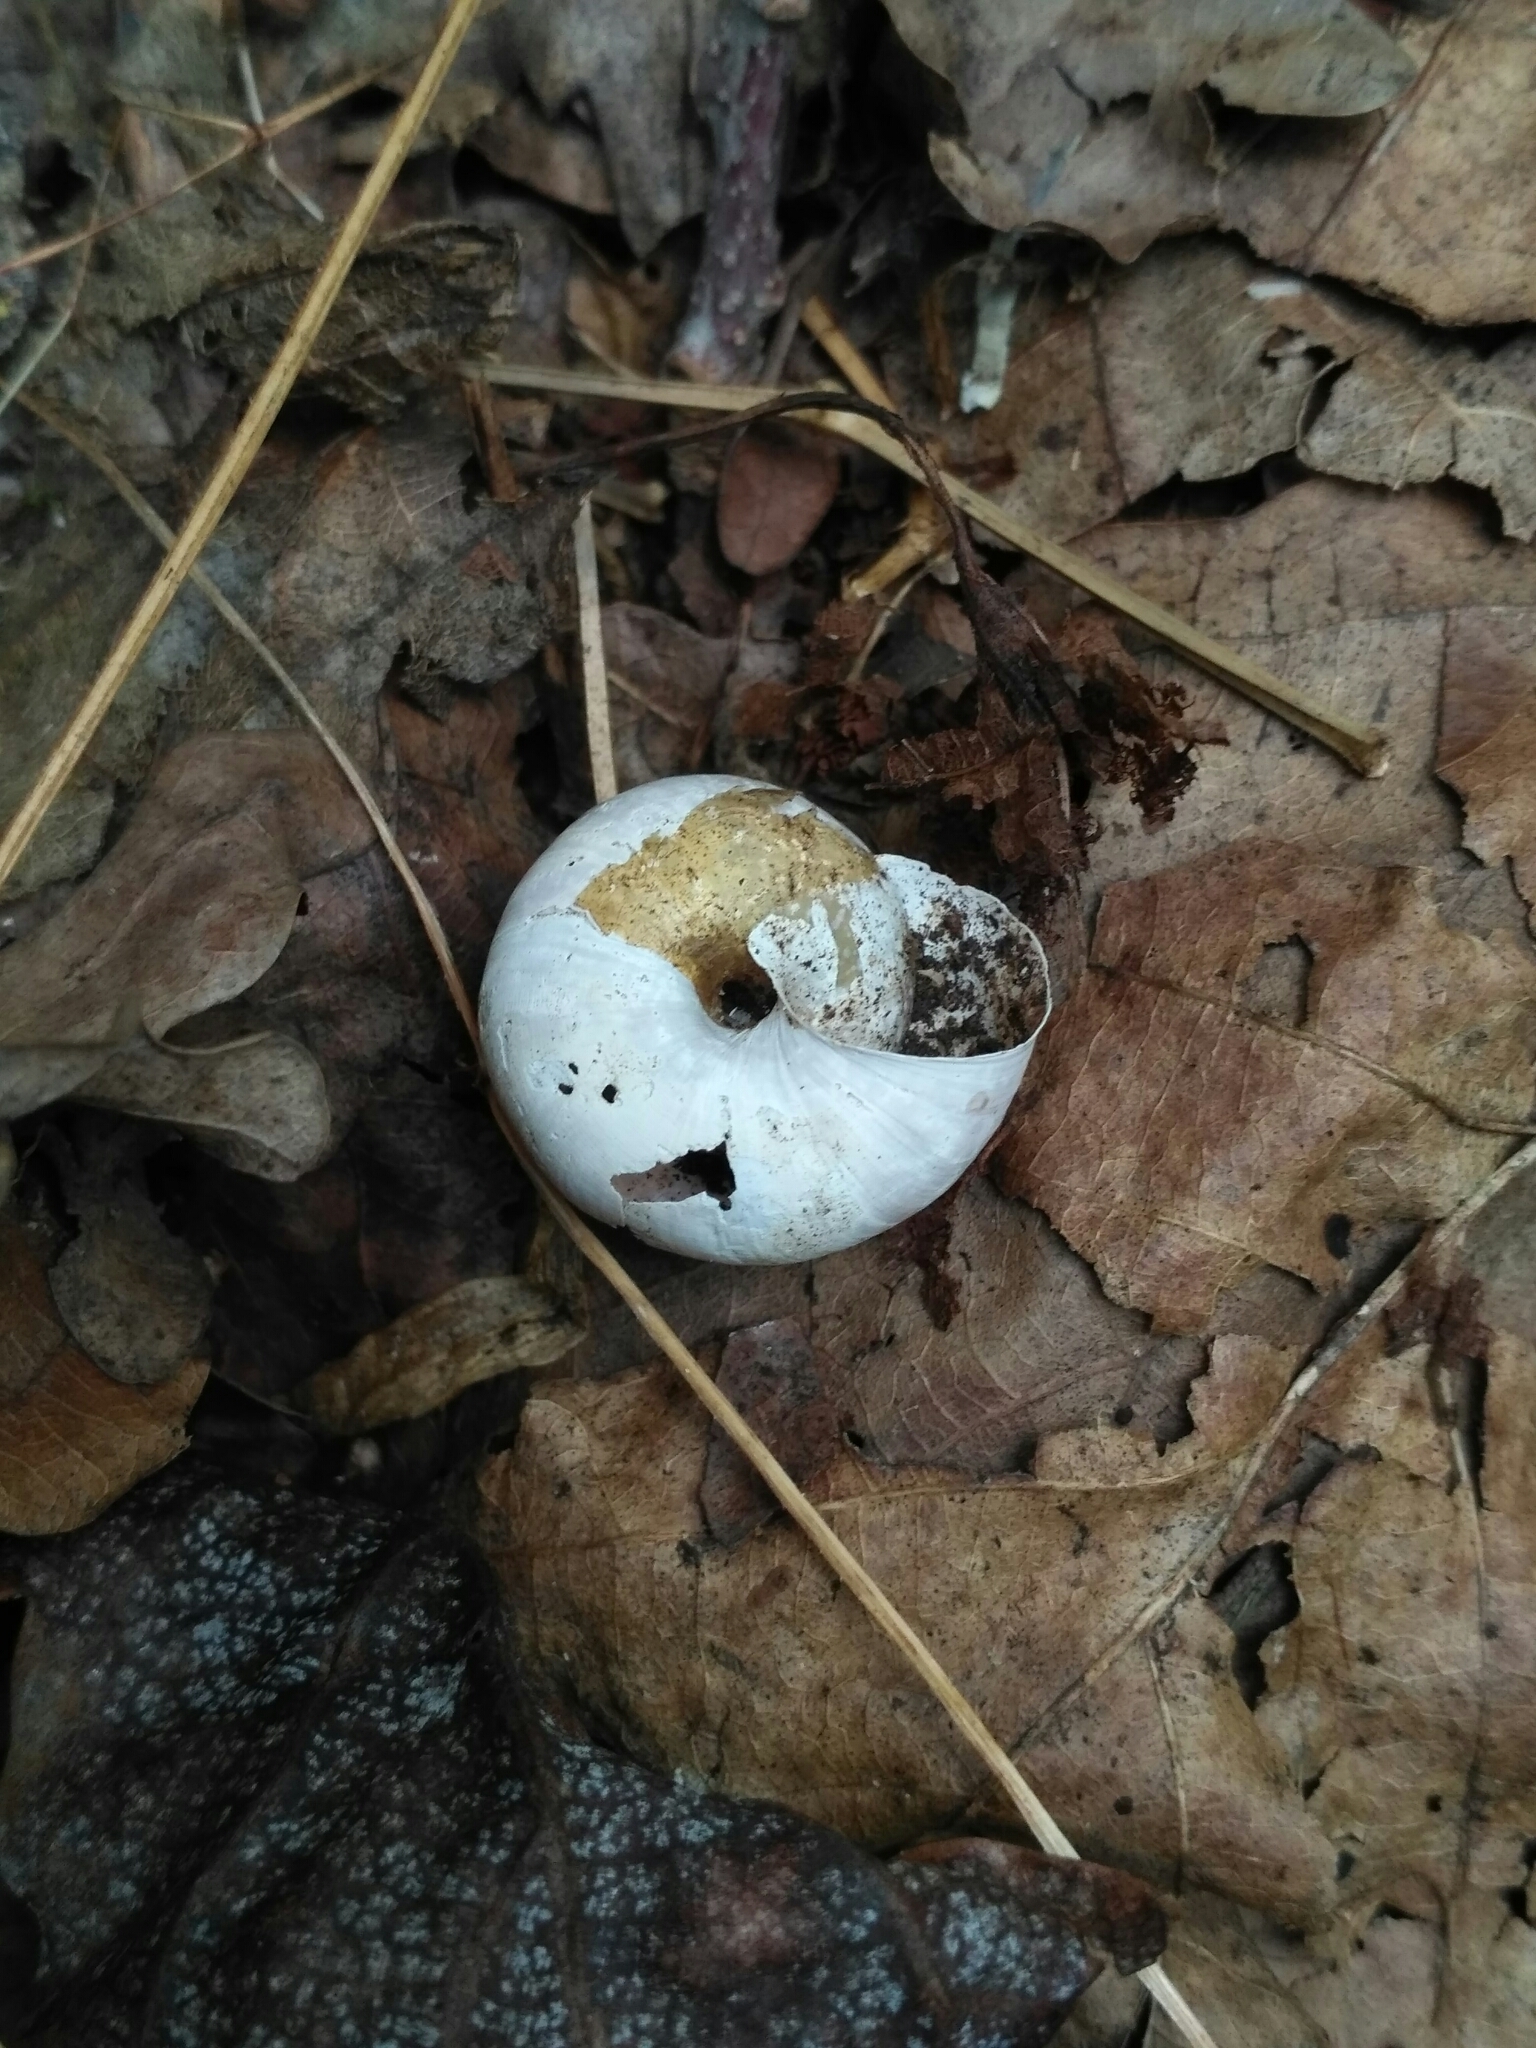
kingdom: Animalia
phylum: Mollusca
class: Gastropoda
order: Stylommatophora
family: Camaenidae
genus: Fruticicola
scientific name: Fruticicola fruticum
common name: Bush snail
